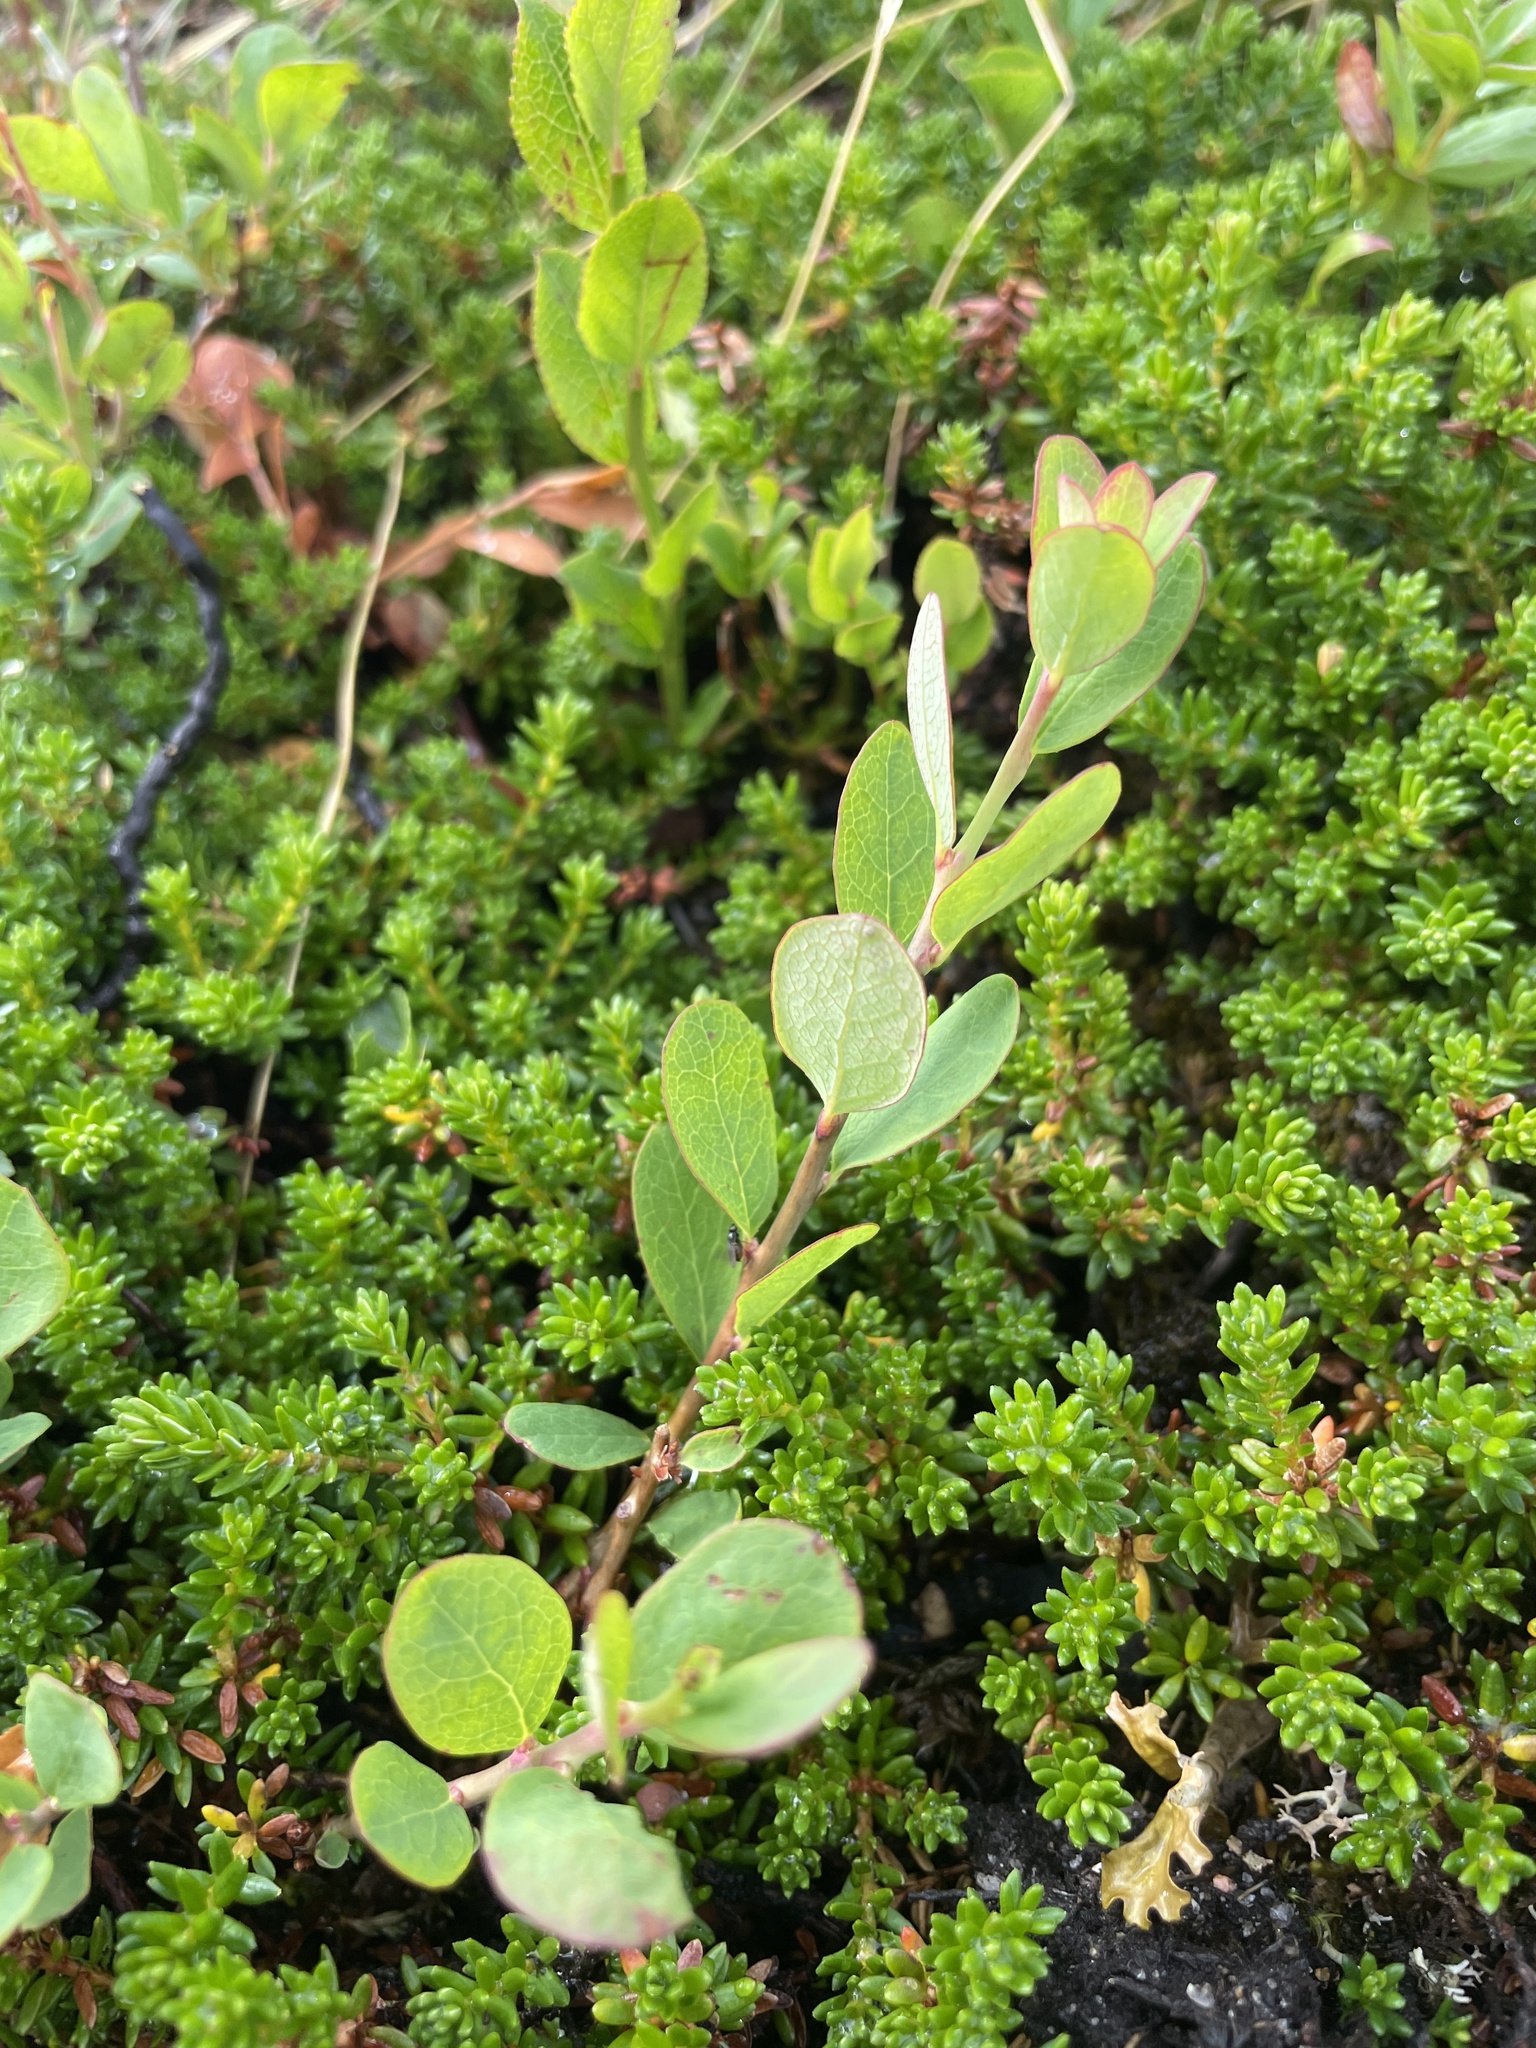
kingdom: Plantae
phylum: Tracheophyta
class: Magnoliopsida
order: Ericales
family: Ericaceae
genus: Vaccinium
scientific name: Vaccinium uliginosum
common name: Bog bilberry
